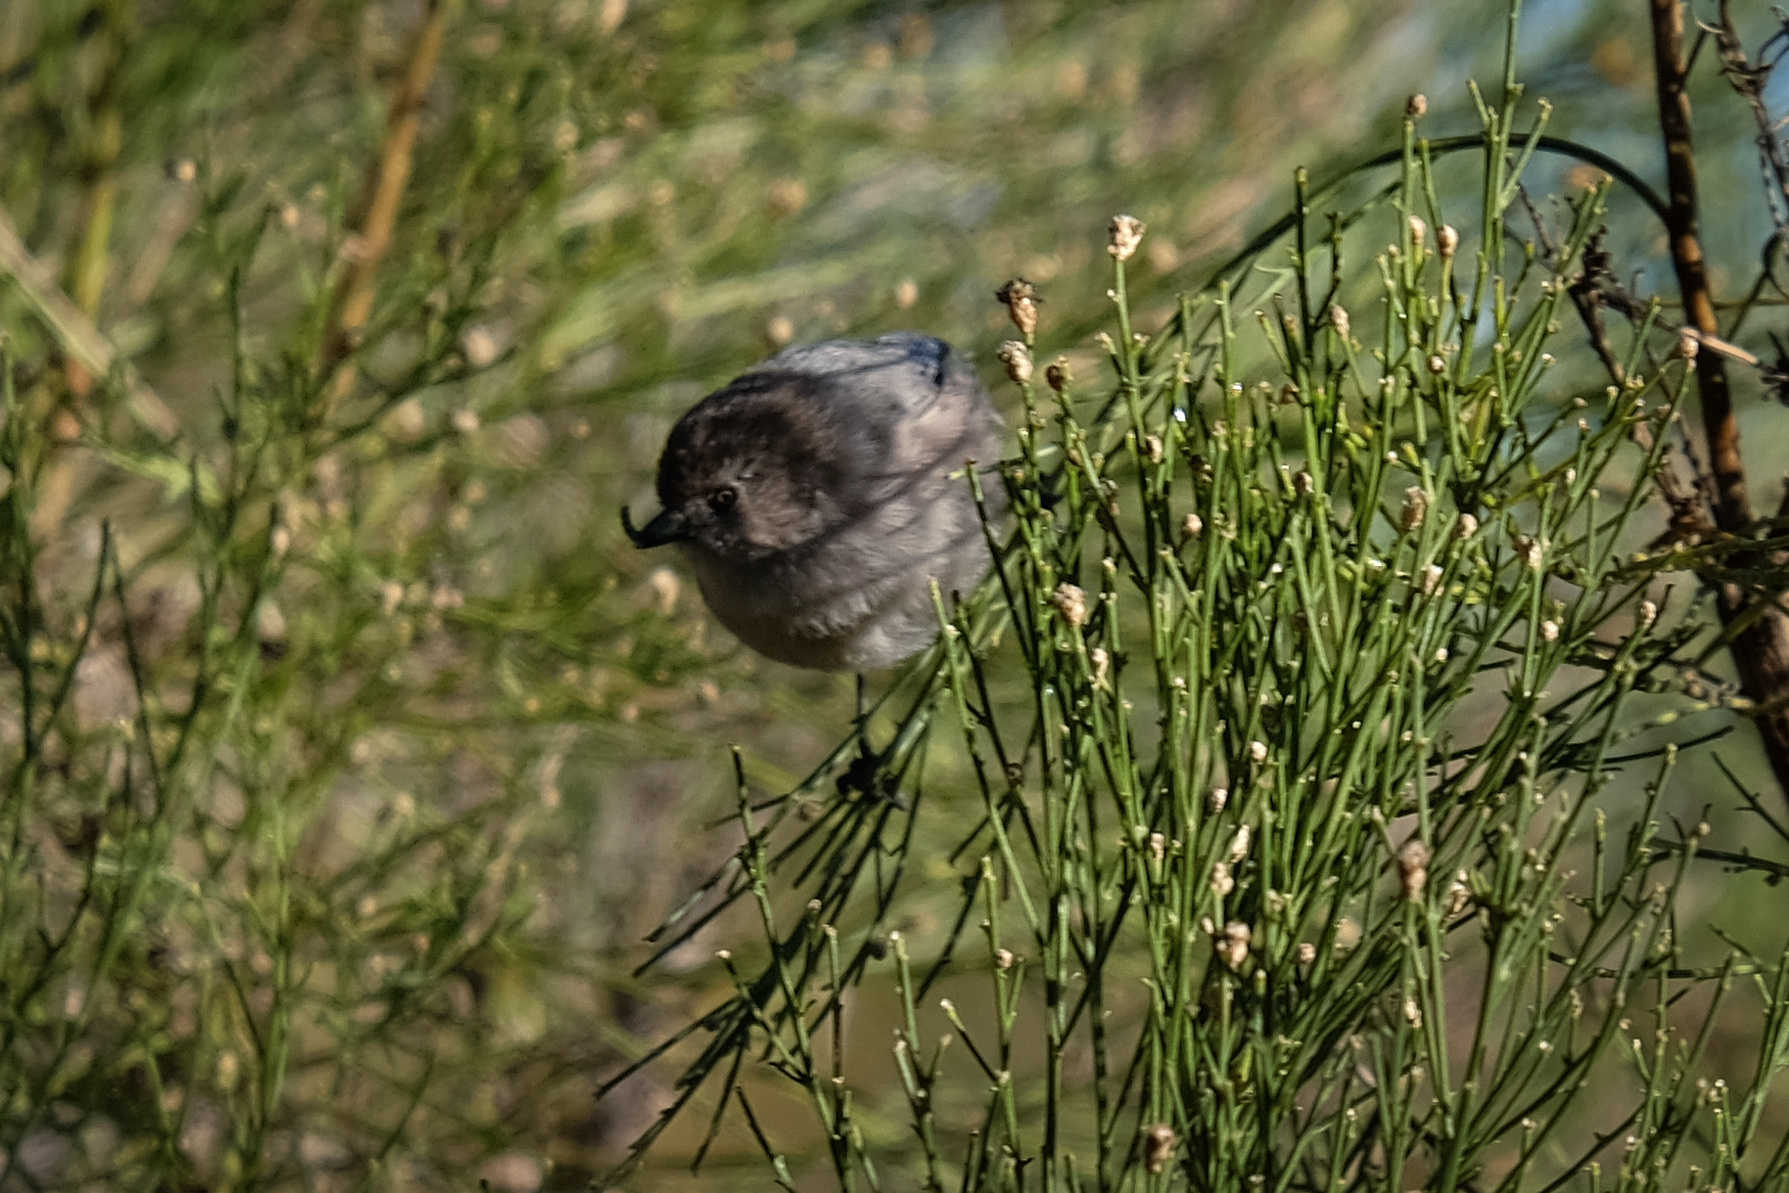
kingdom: Animalia
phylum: Chordata
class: Aves
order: Passeriformes
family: Aegithalidae
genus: Psaltriparus
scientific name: Psaltriparus minimus
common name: American bushtit
